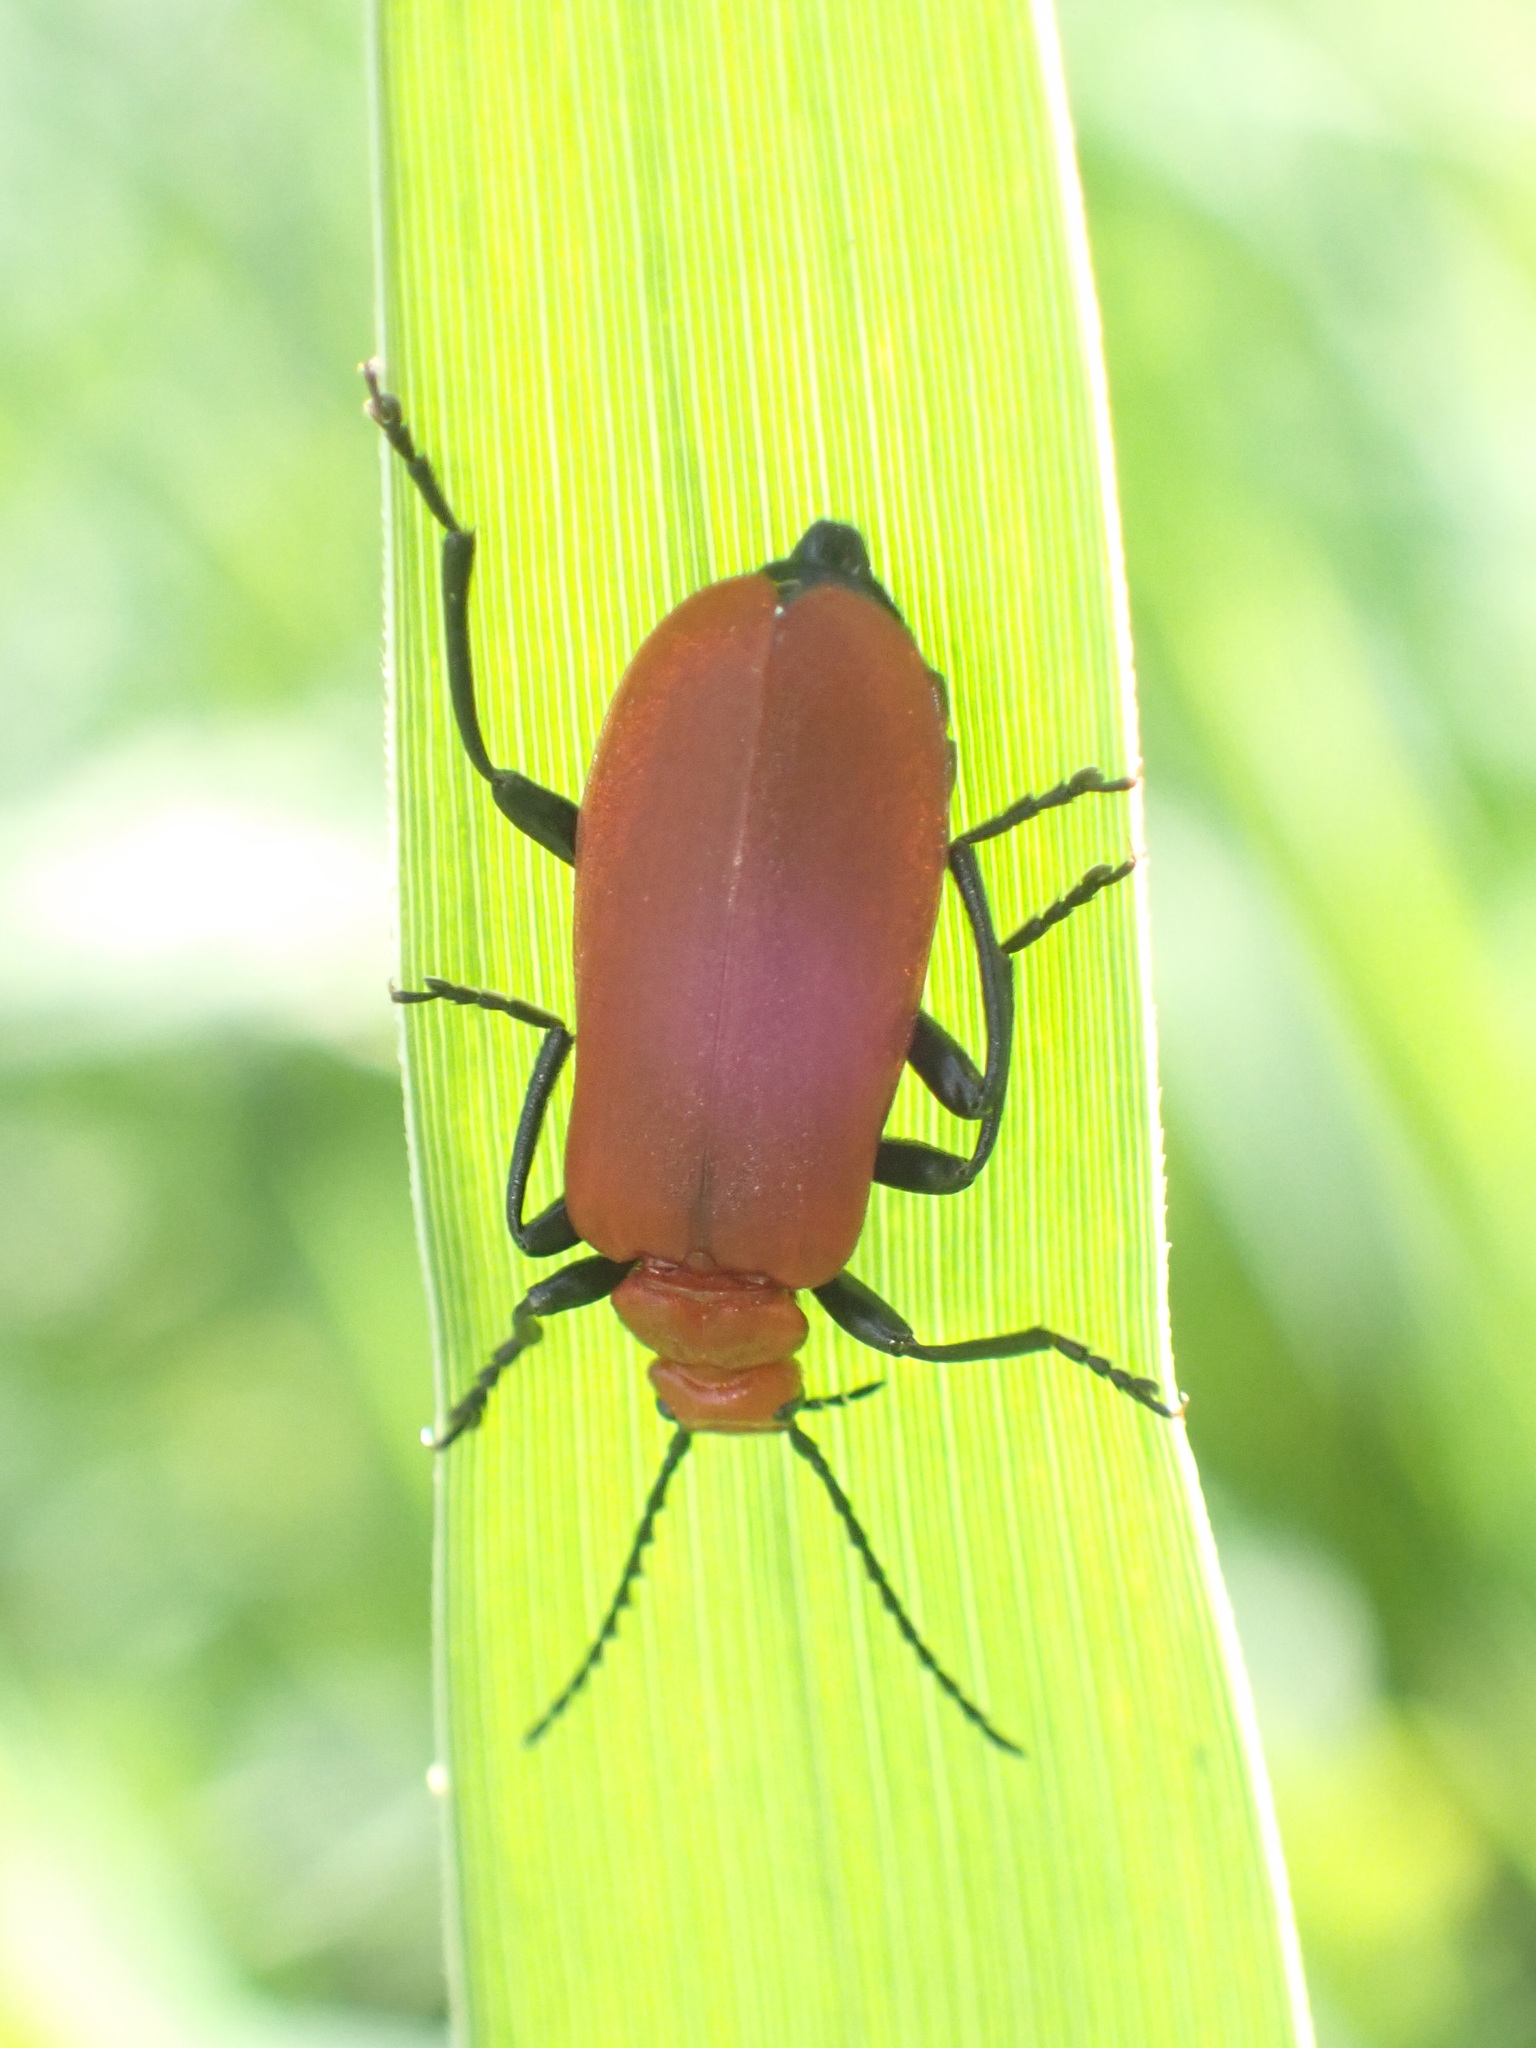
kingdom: Animalia
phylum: Arthropoda
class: Insecta
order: Coleoptera
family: Pyrochroidae
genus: Pyrochroa
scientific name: Pyrochroa serraticornis
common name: Red-headed cardinal beetle
